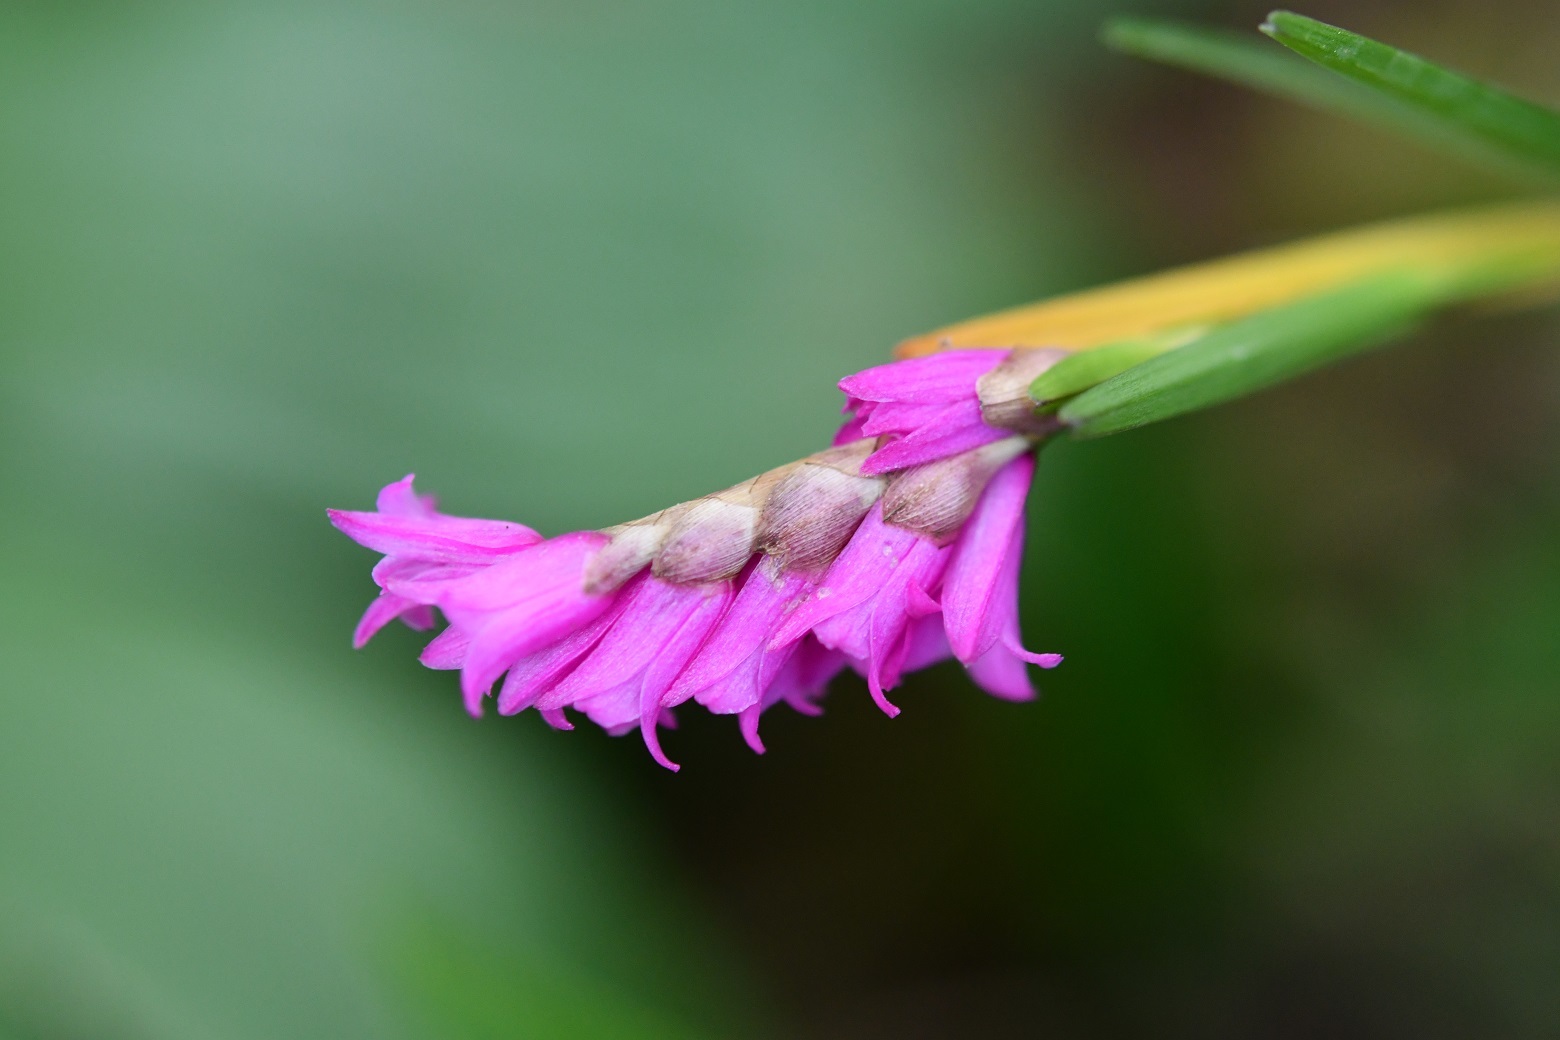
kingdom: Plantae
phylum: Tracheophyta
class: Liliopsida
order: Asparagales
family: Orchidaceae
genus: Isochilus
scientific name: Isochilus latibracteatus
